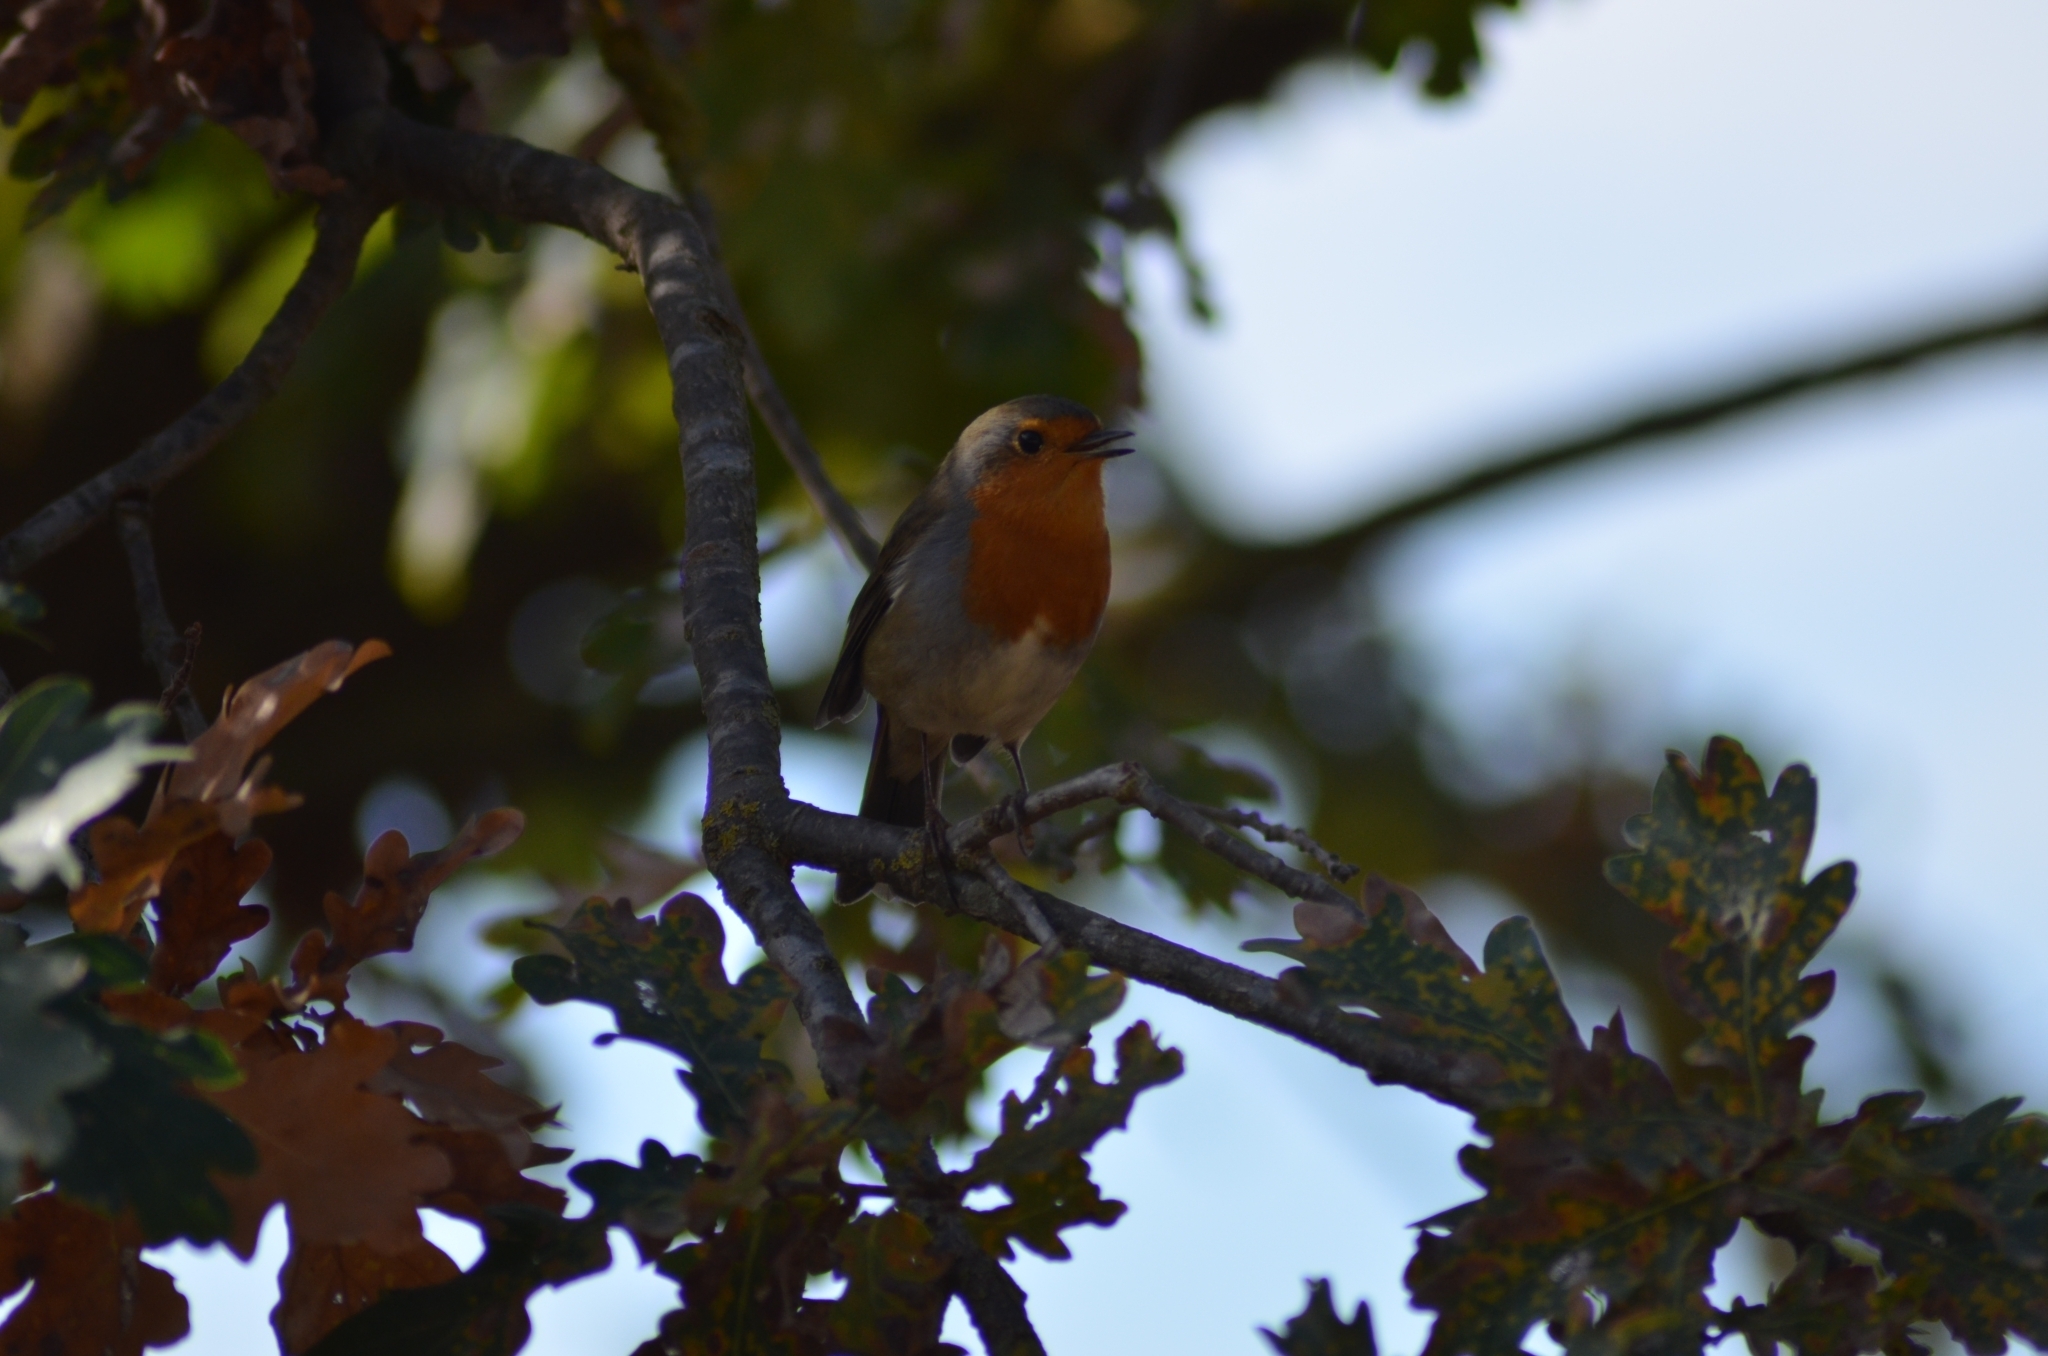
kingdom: Animalia
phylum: Chordata
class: Aves
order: Passeriformes
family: Muscicapidae
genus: Erithacus
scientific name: Erithacus rubecula
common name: European robin
